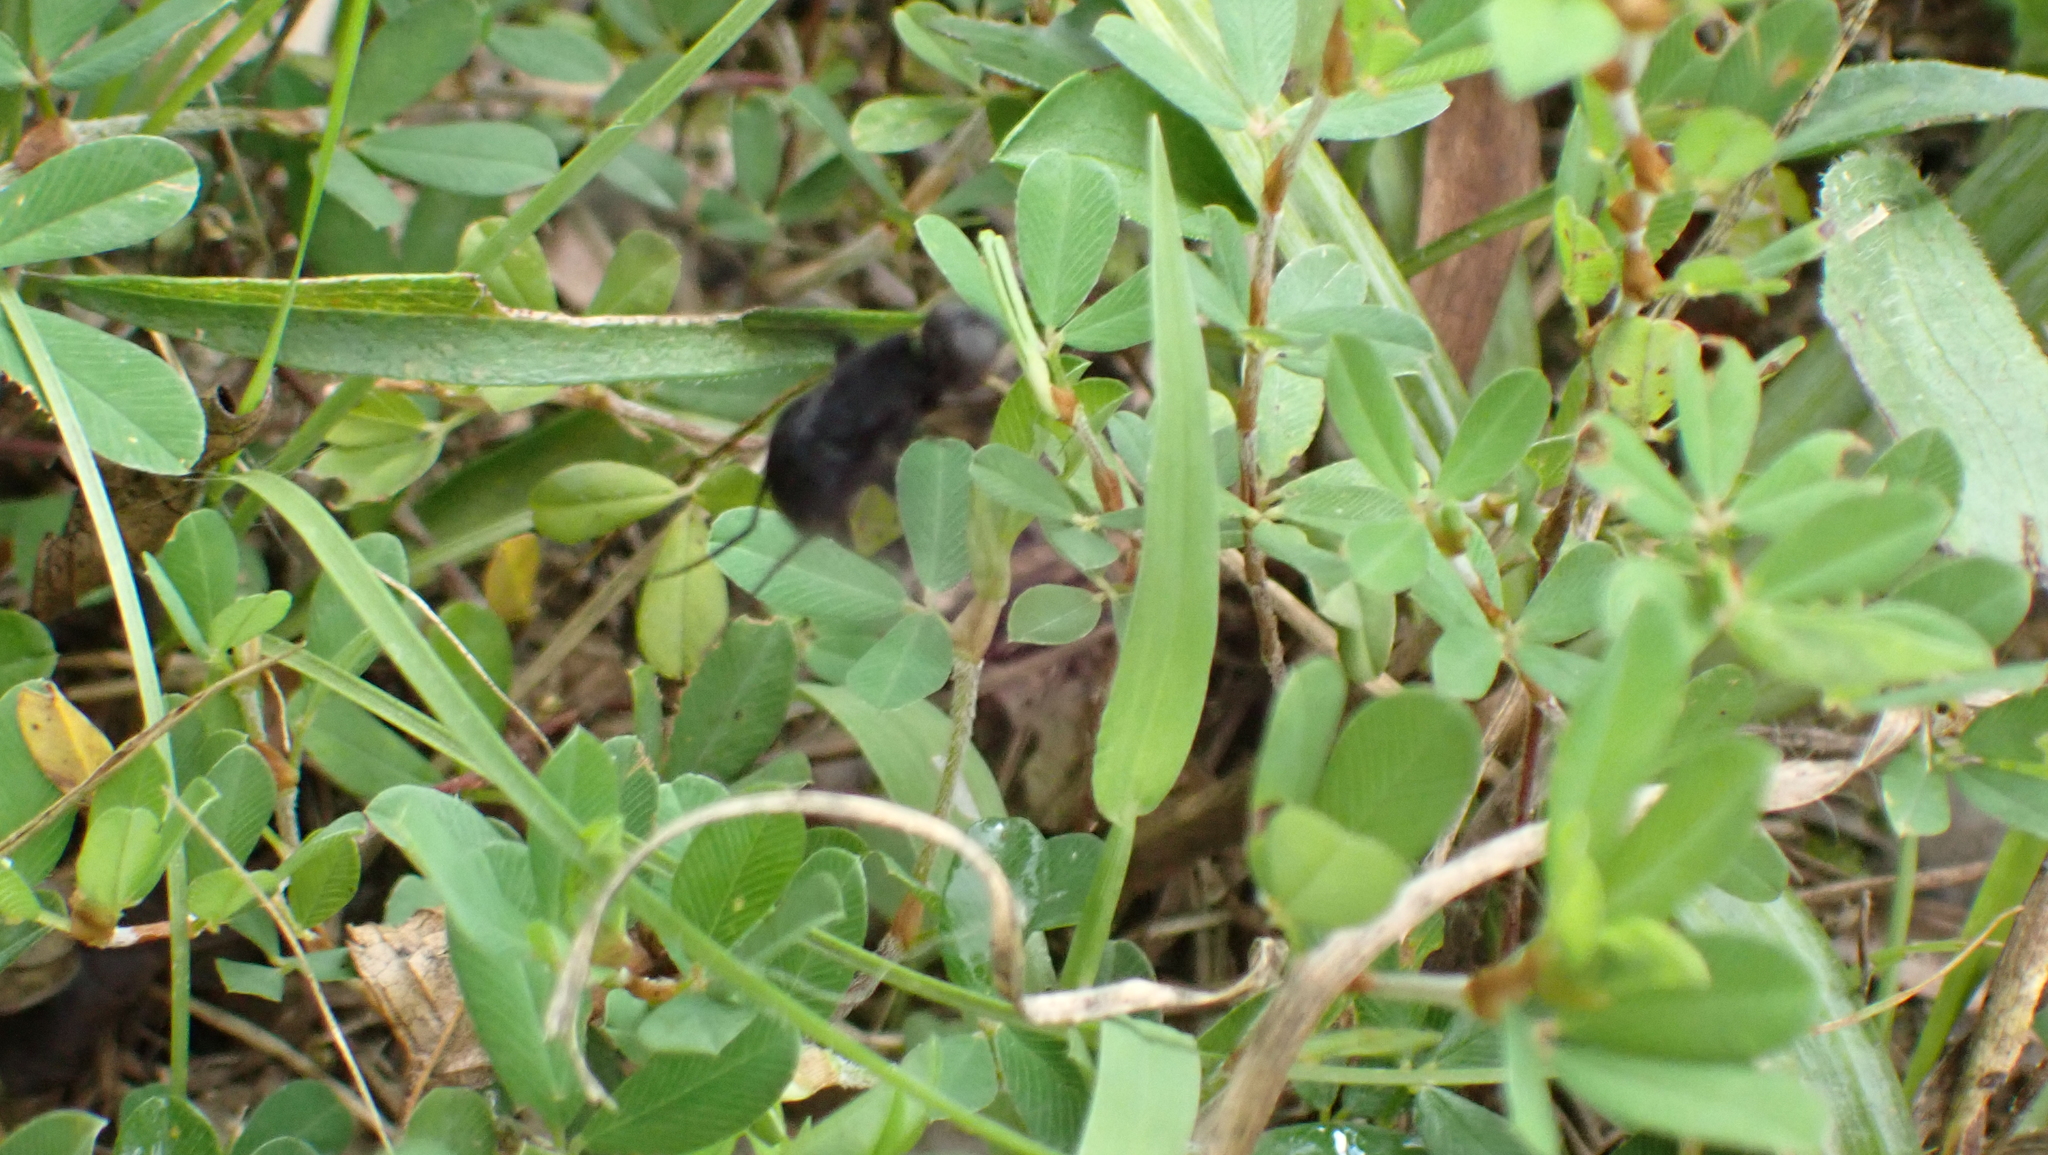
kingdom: Animalia
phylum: Arthropoda
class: Insecta
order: Diptera
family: Bombyliidae
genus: Anthrax
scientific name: Anthrax
